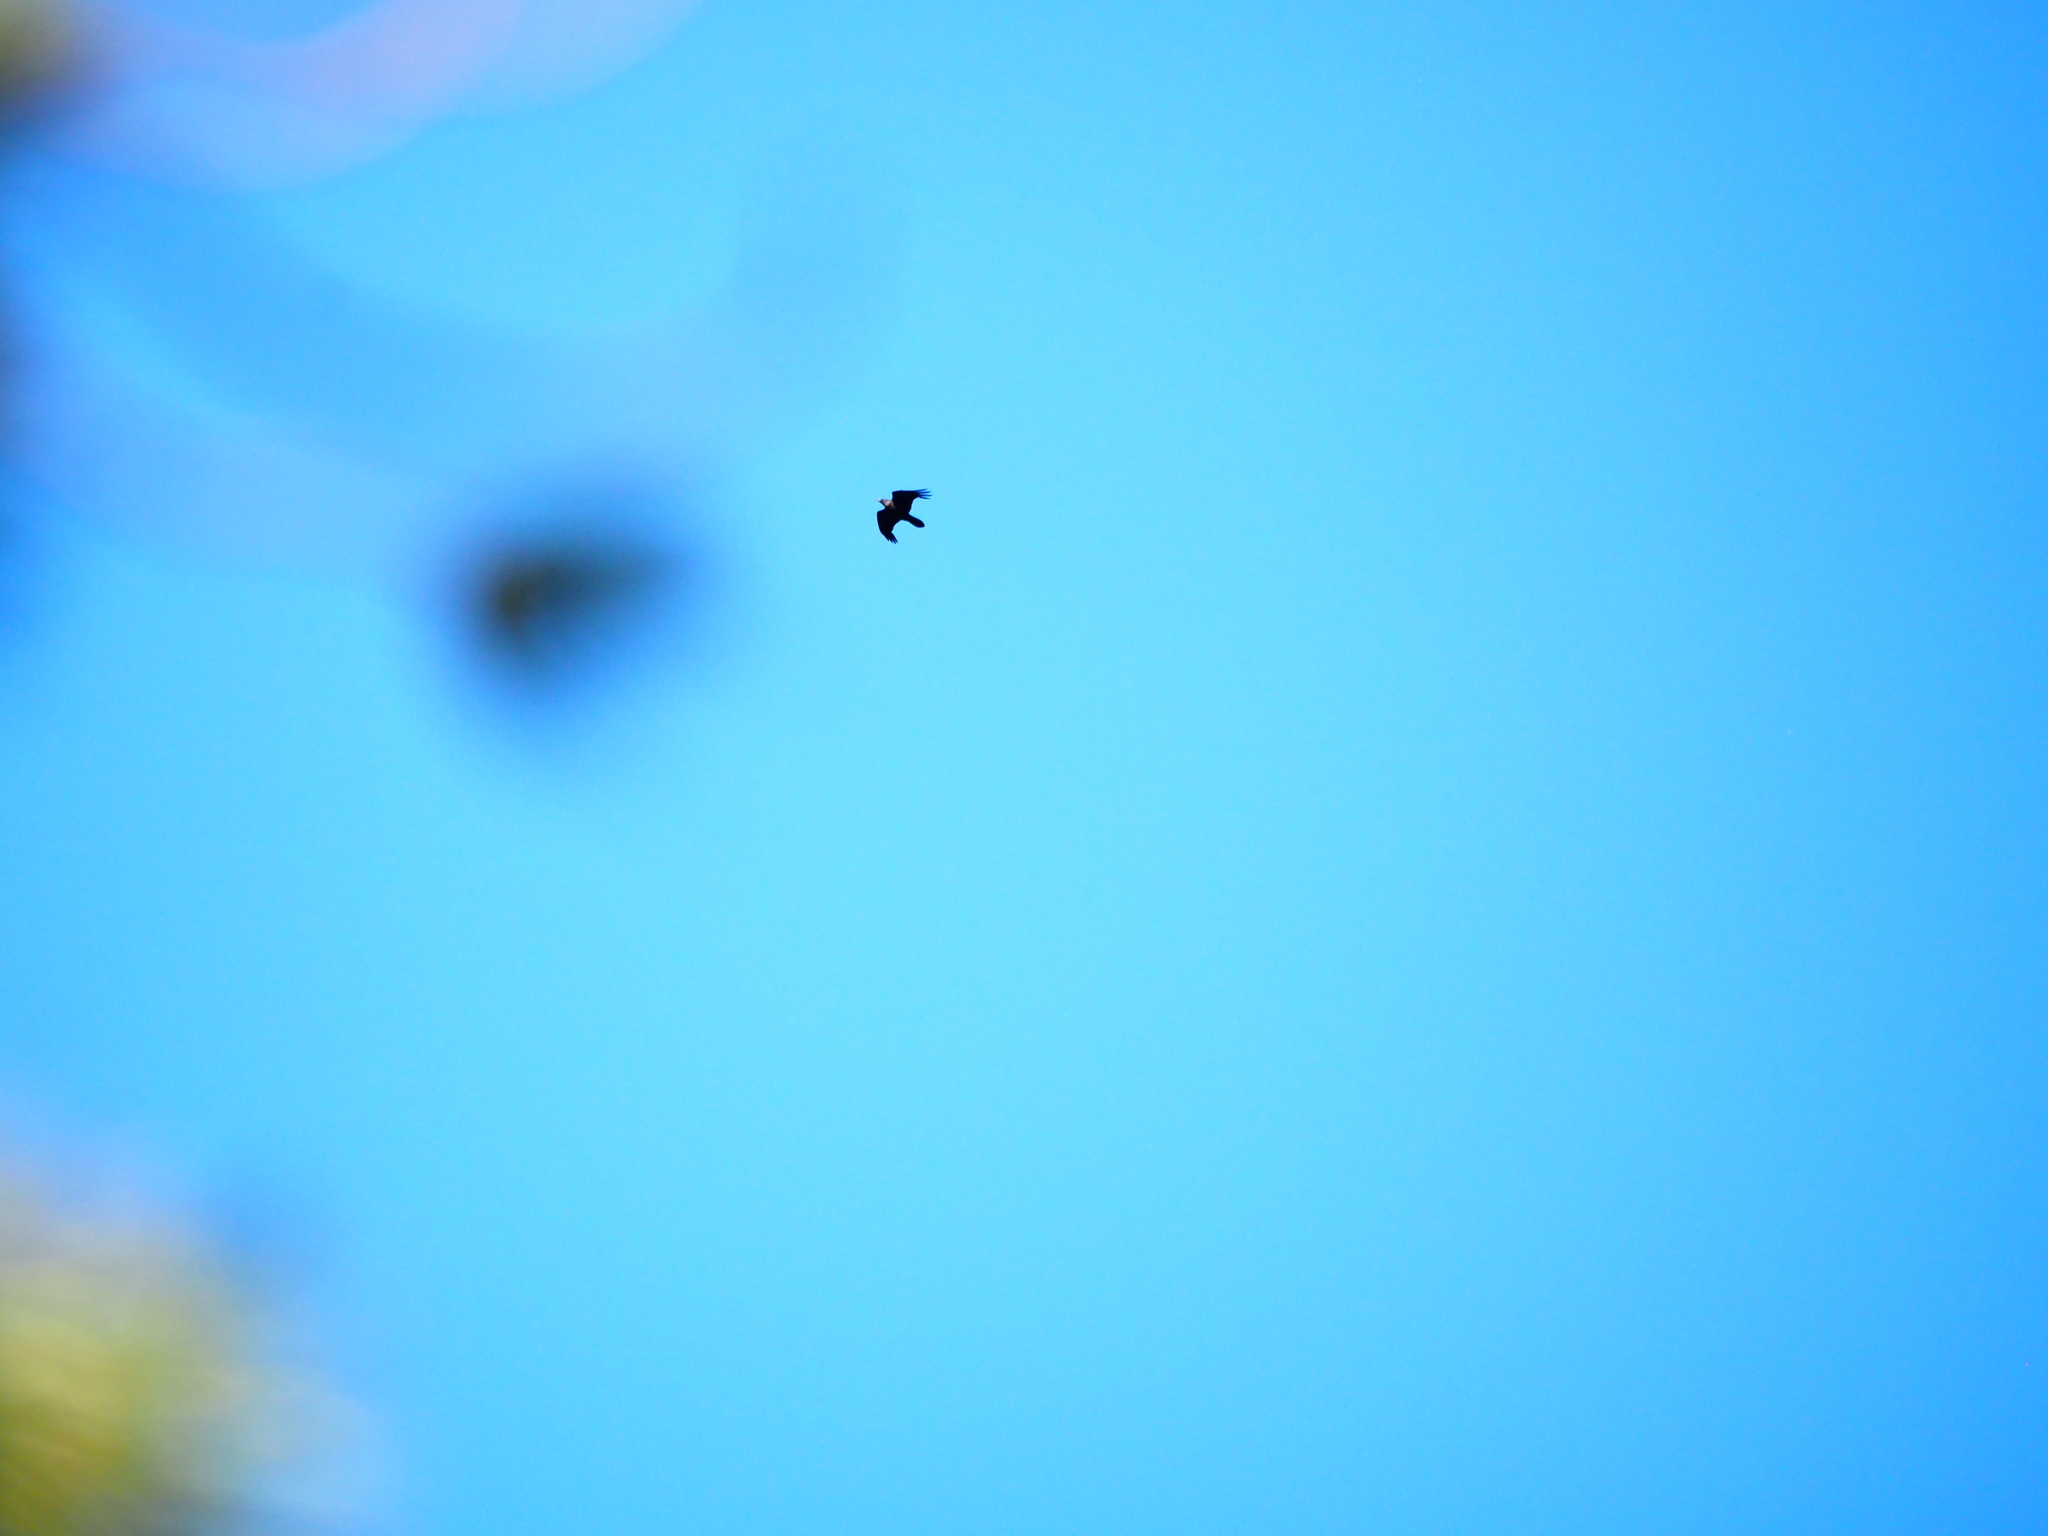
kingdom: Animalia
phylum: Chordata
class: Aves
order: Accipitriformes
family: Accipitridae
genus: Haliaeetus
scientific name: Haliaeetus leucocephalus
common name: Bald eagle
